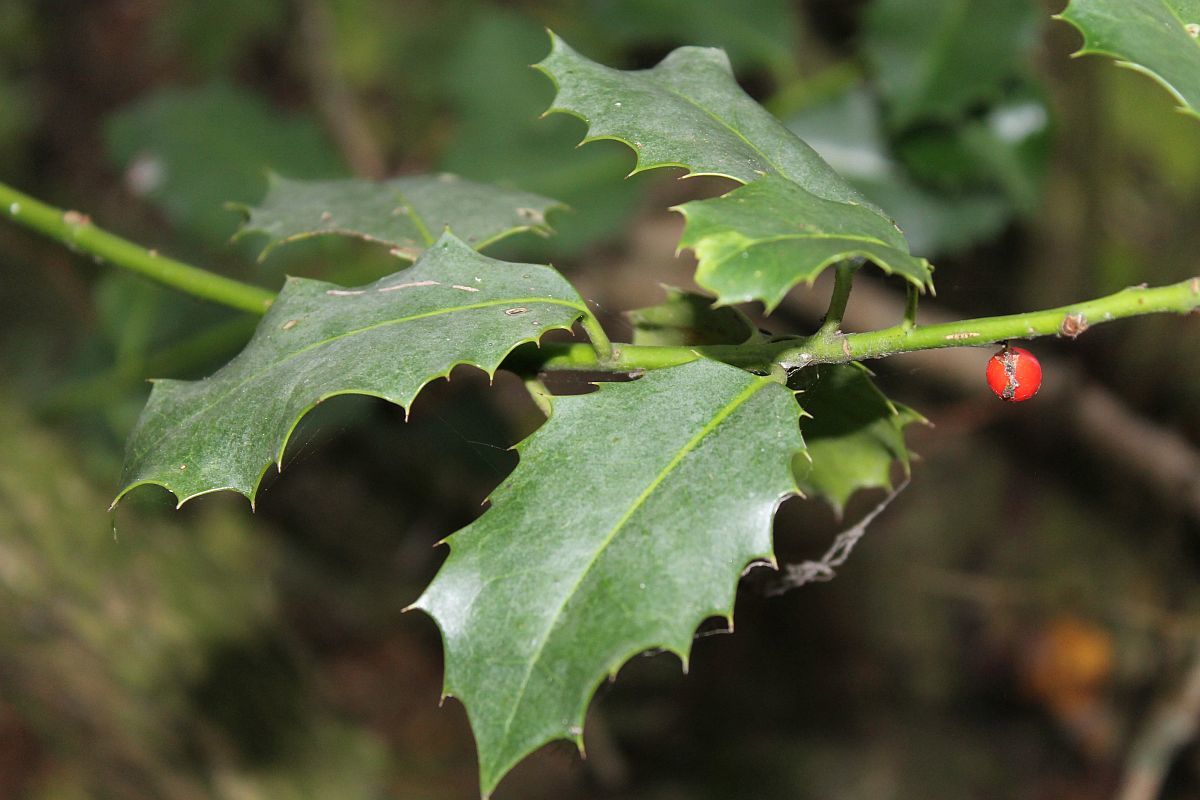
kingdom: Plantae
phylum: Tracheophyta
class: Magnoliopsida
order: Aquifoliales
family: Aquifoliaceae
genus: Ilex
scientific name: Ilex aquifolium
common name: English holly
